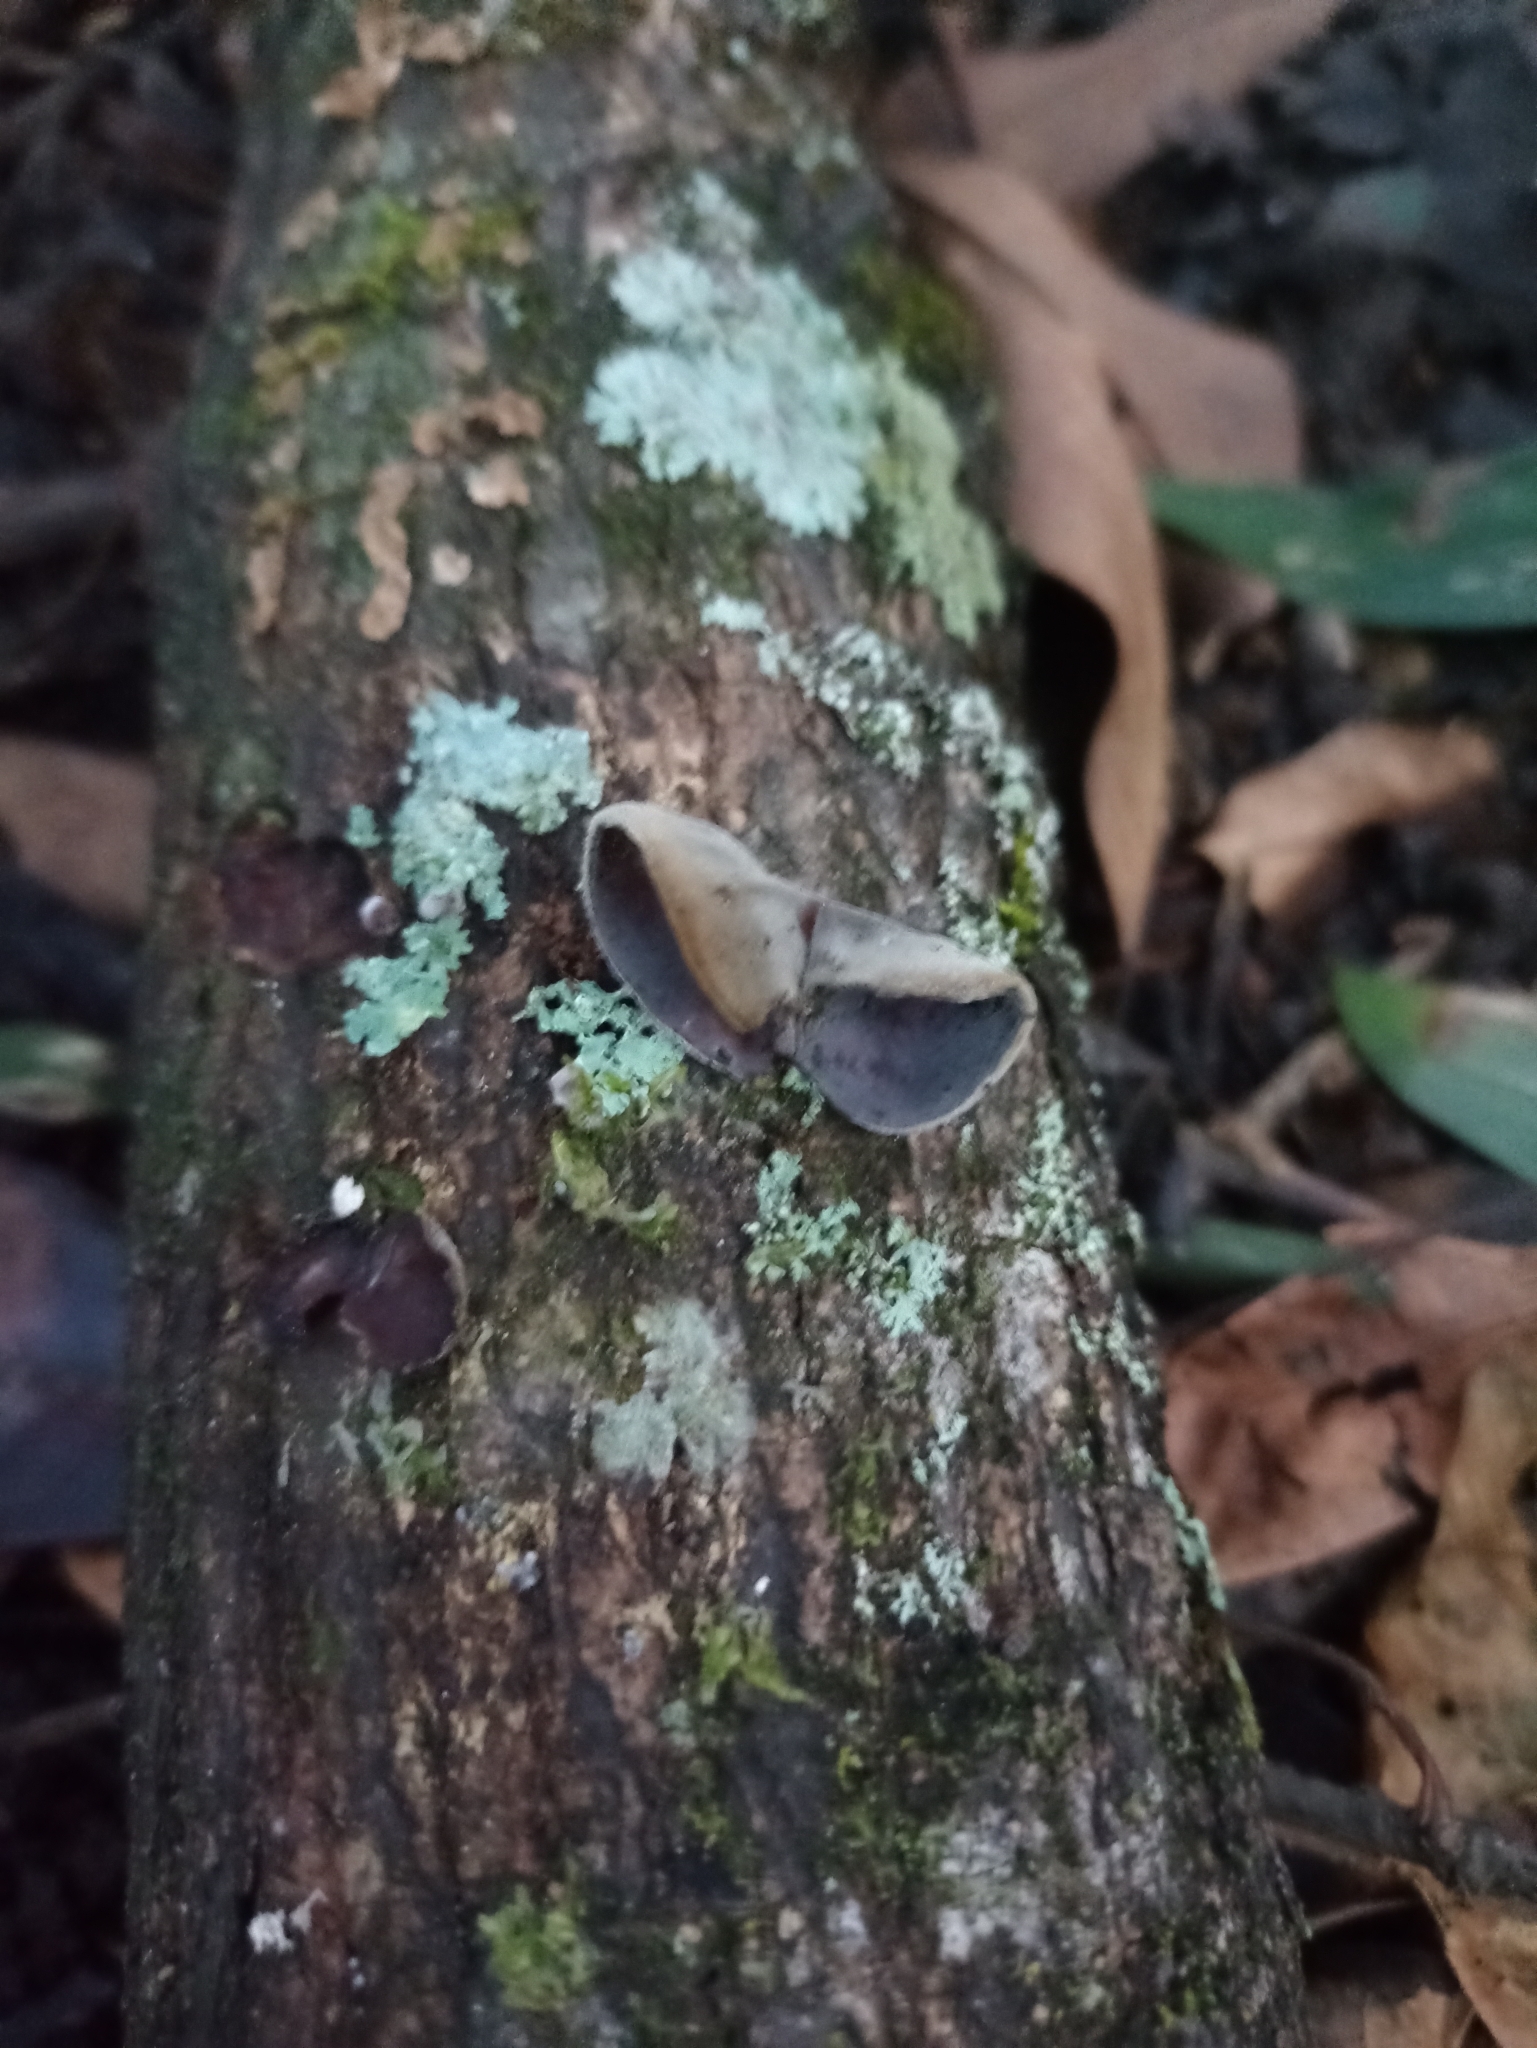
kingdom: Fungi
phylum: Basidiomycota
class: Agaricomycetes
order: Auriculariales
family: Auriculariaceae
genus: Auricularia
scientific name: Auricularia nigricans
